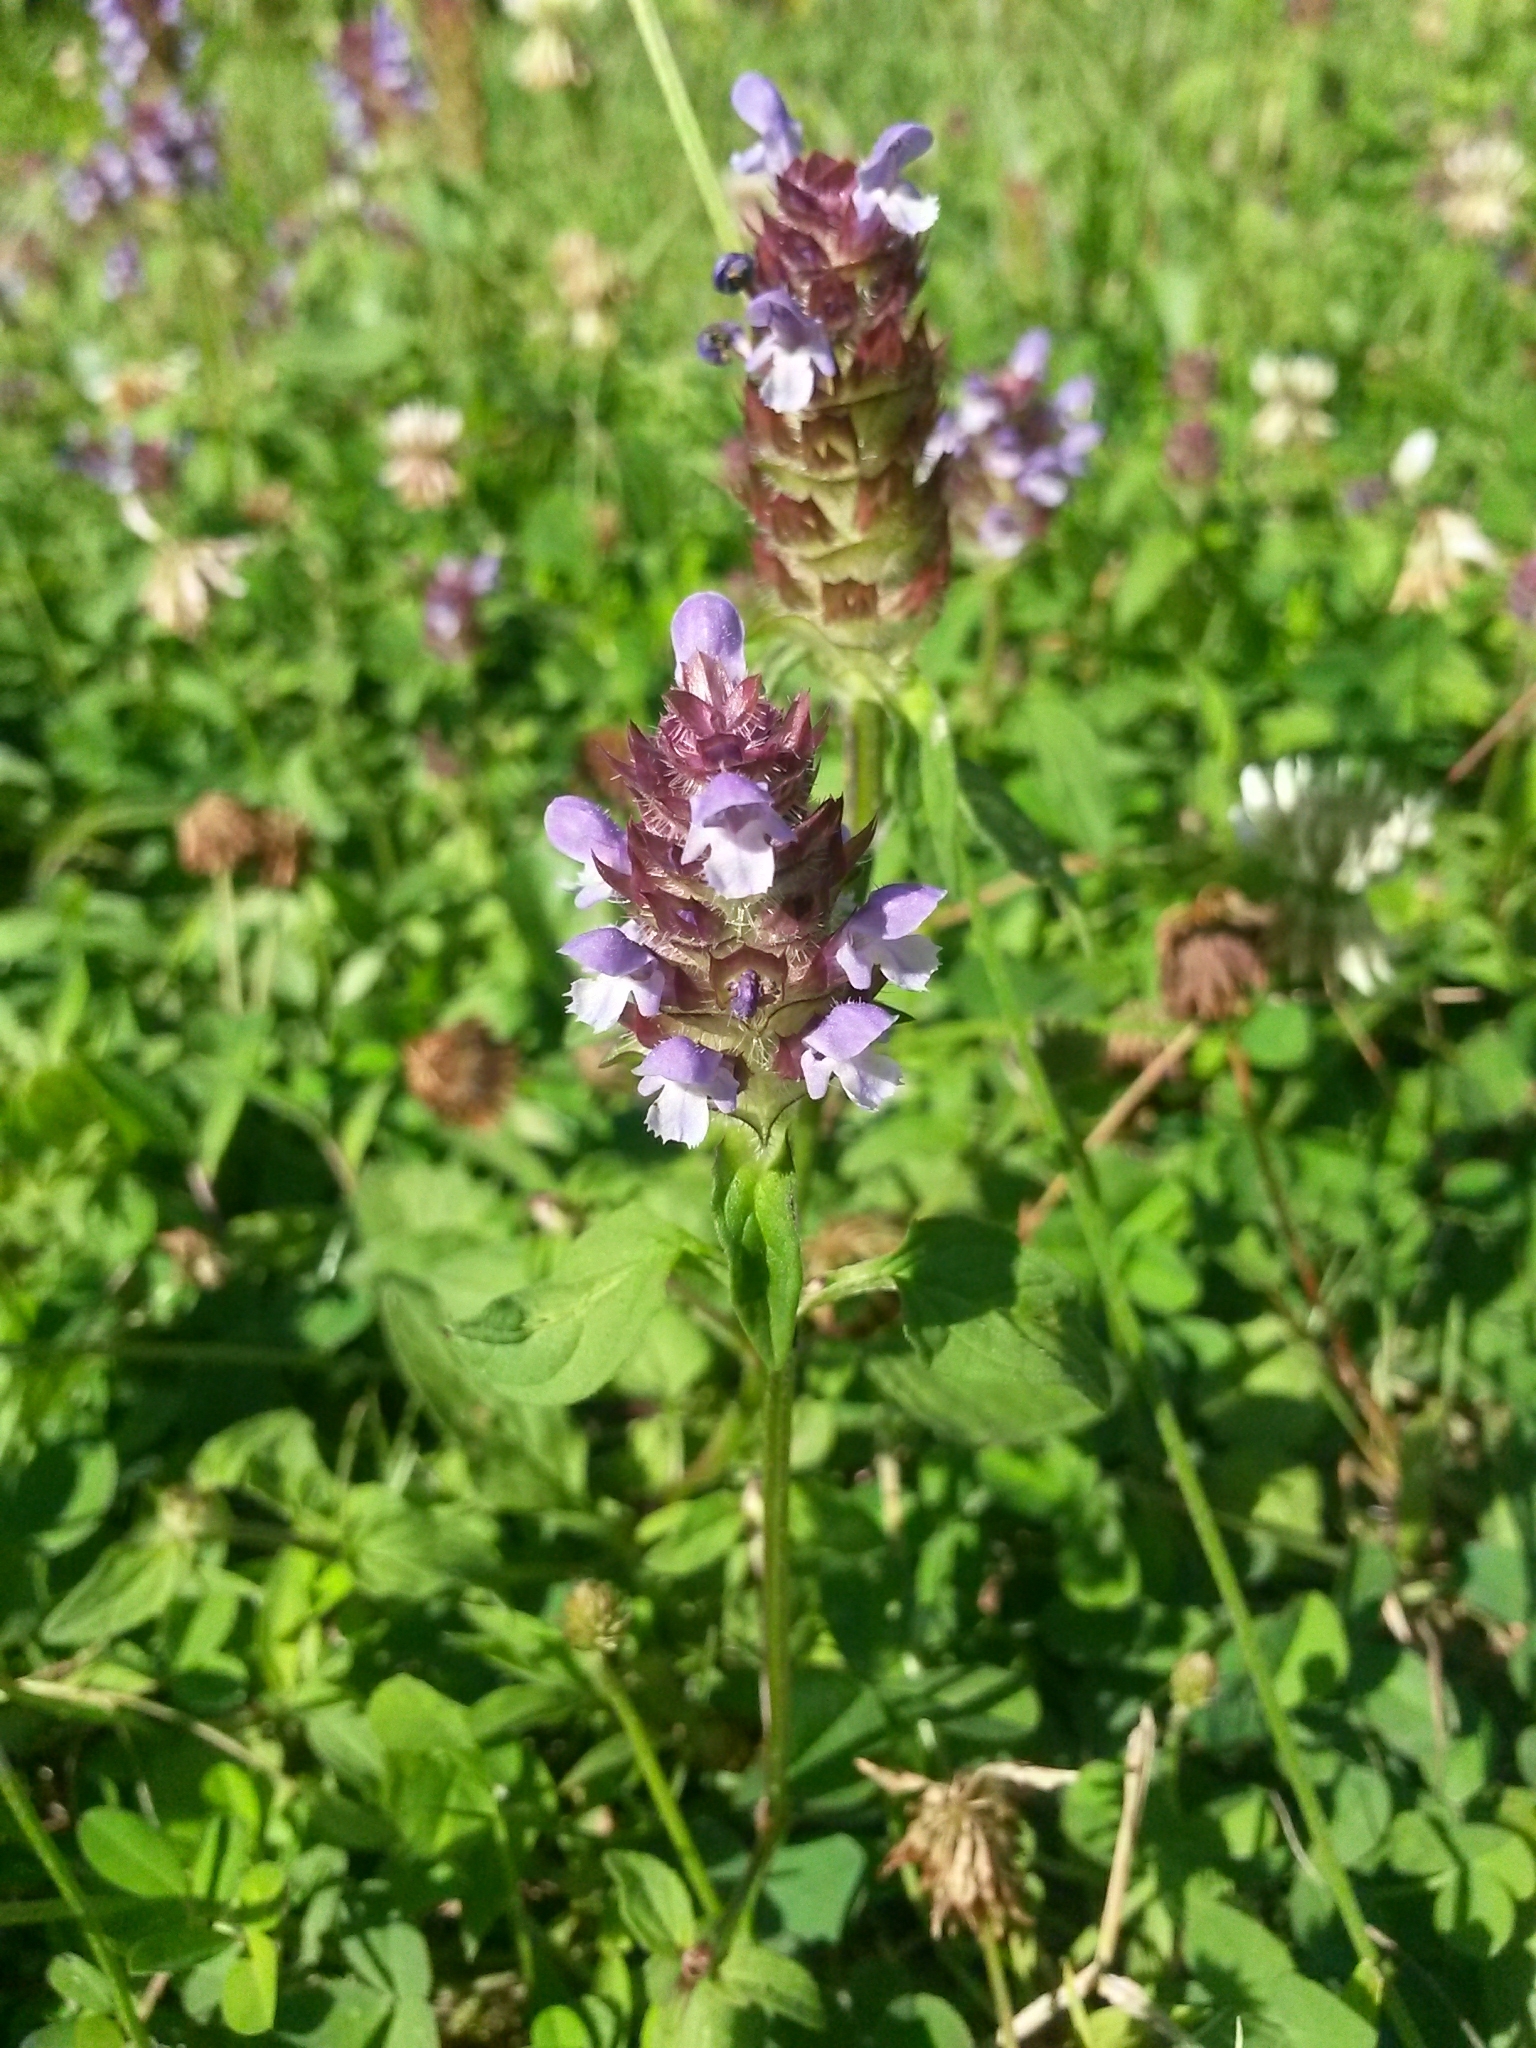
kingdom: Plantae
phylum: Tracheophyta
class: Magnoliopsida
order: Lamiales
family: Lamiaceae
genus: Prunella
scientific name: Prunella vulgaris
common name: Heal-all
